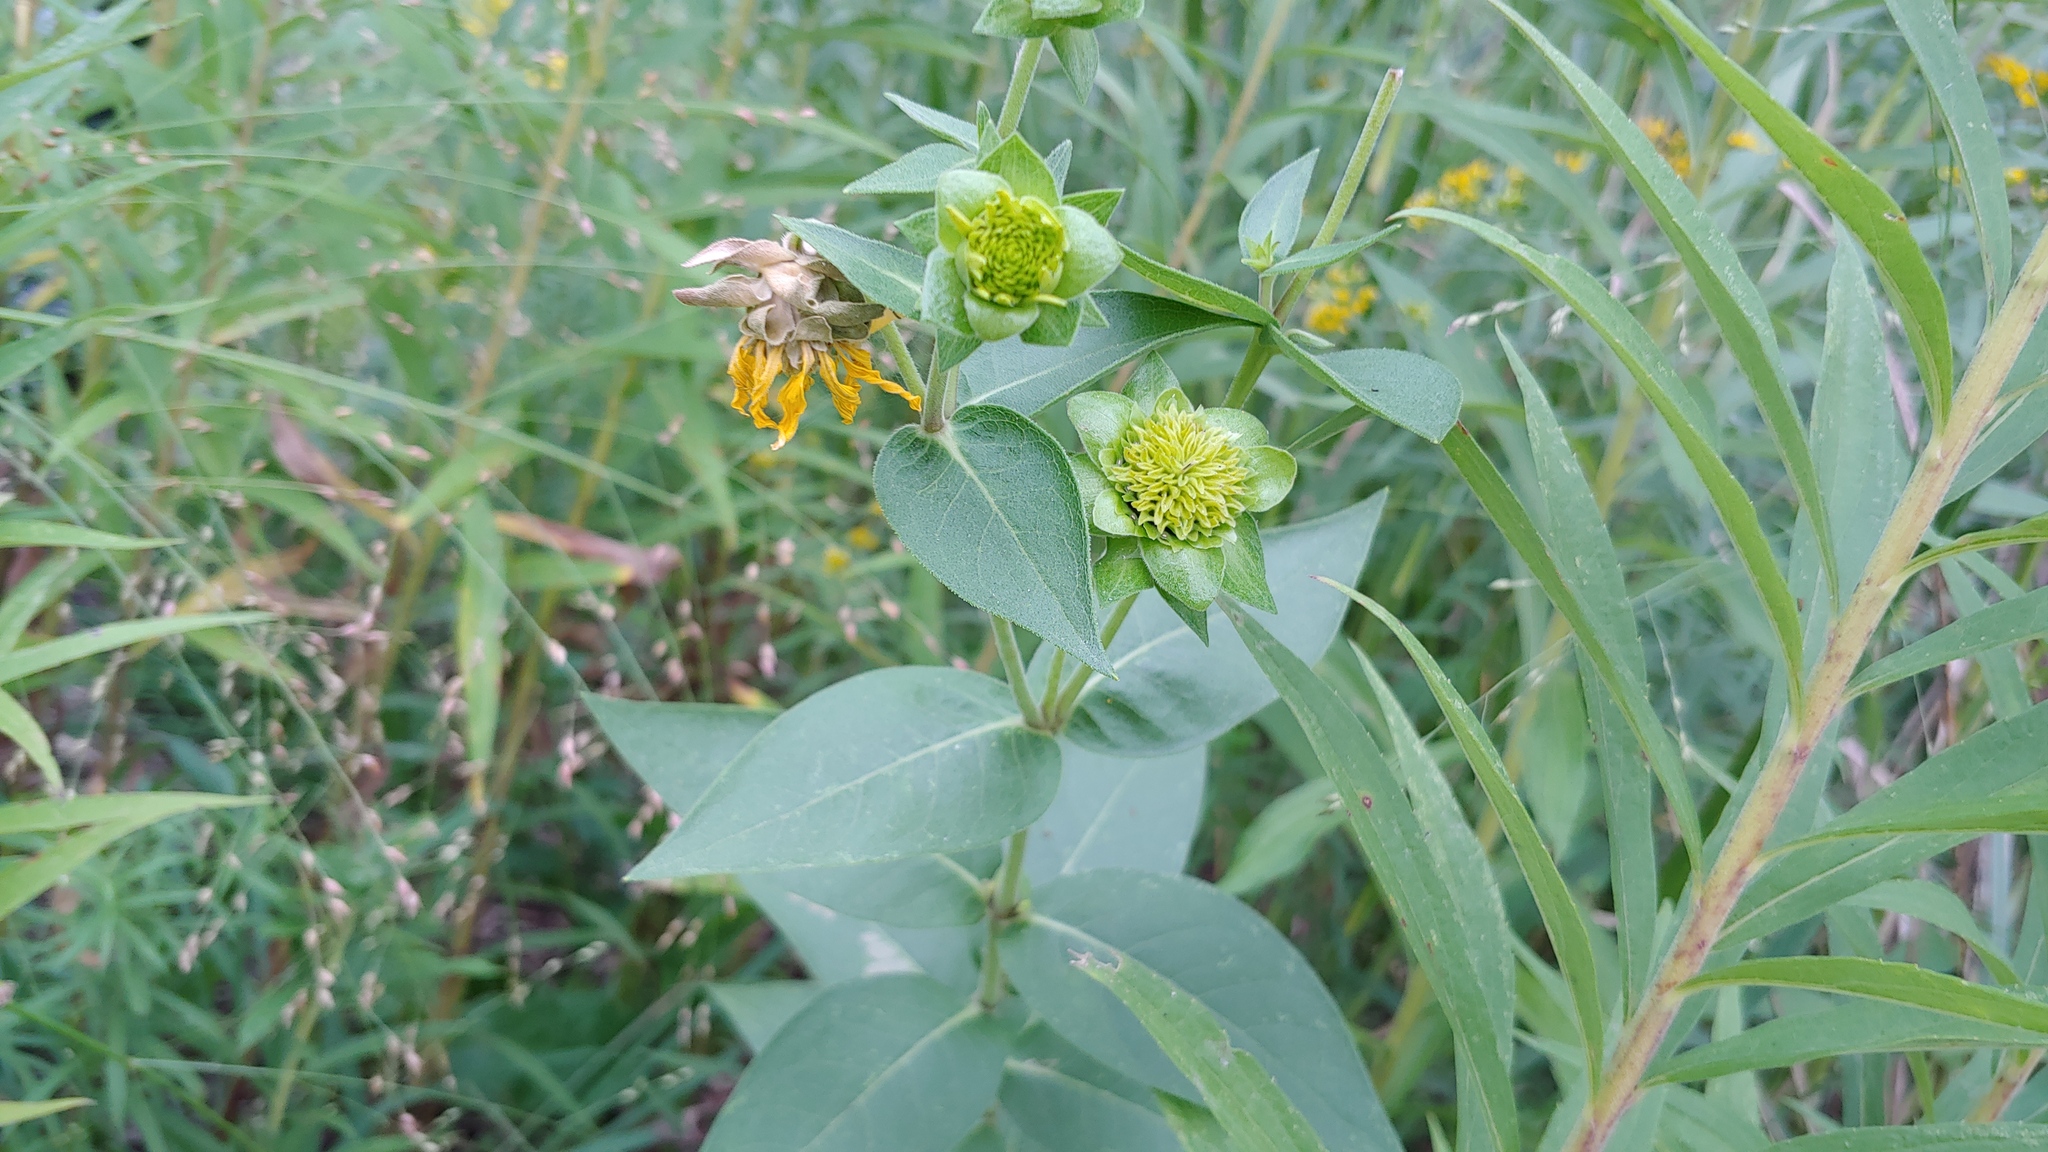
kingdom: Plantae
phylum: Tracheophyta
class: Magnoliopsida
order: Asterales
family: Asteraceae
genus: Silphium
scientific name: Silphium integrifolium
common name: Whole-leaf rosinweed
